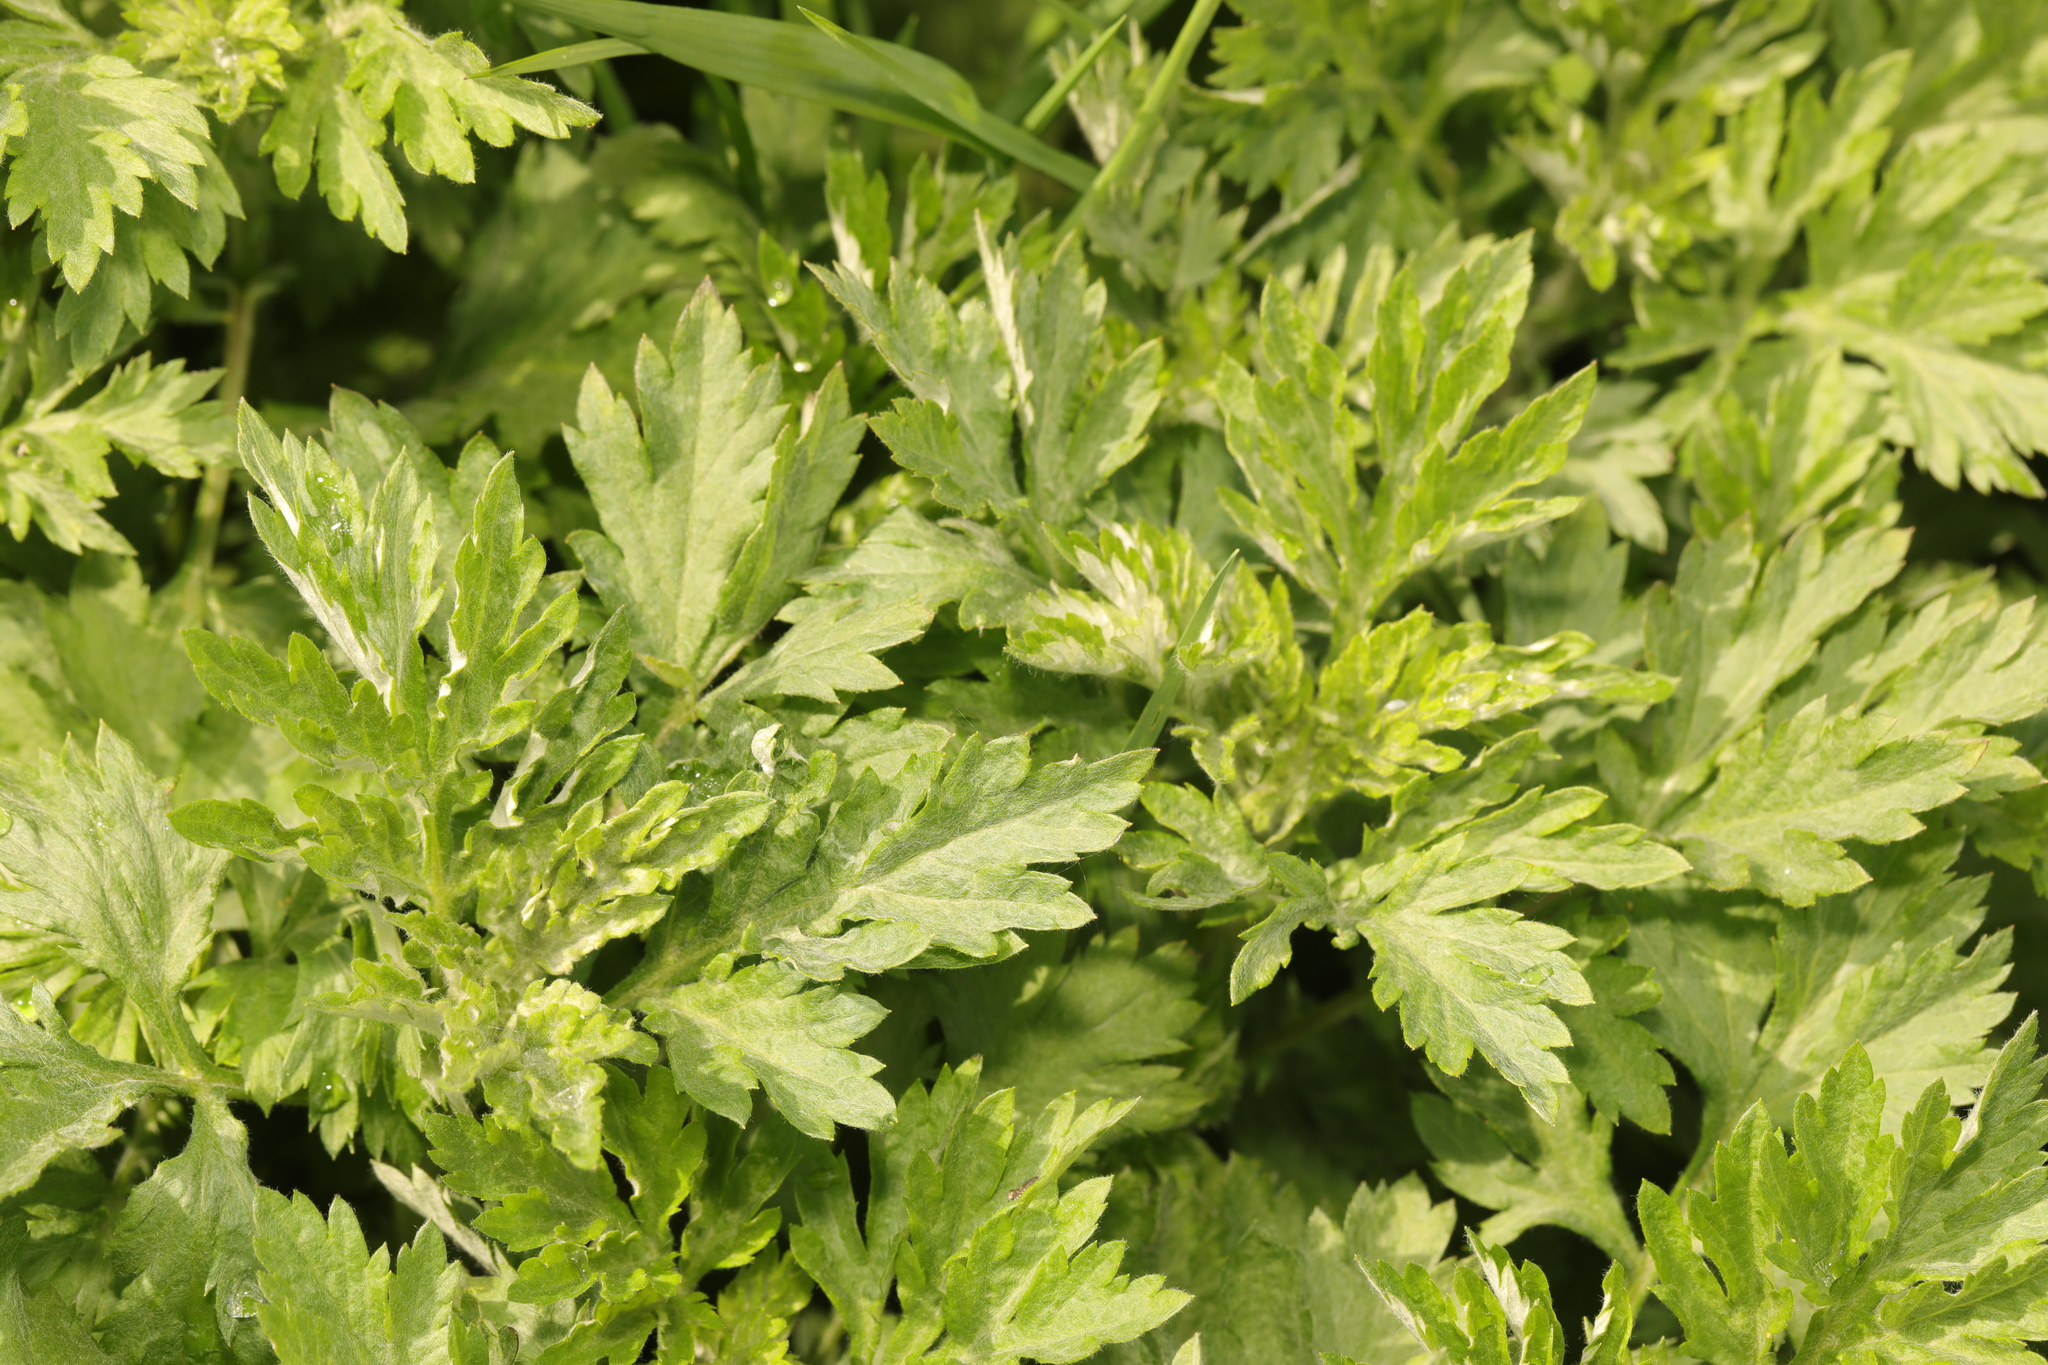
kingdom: Plantae
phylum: Tracheophyta
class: Magnoliopsida
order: Asterales
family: Asteraceae
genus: Artemisia
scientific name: Artemisia vulgaris
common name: Mugwort
